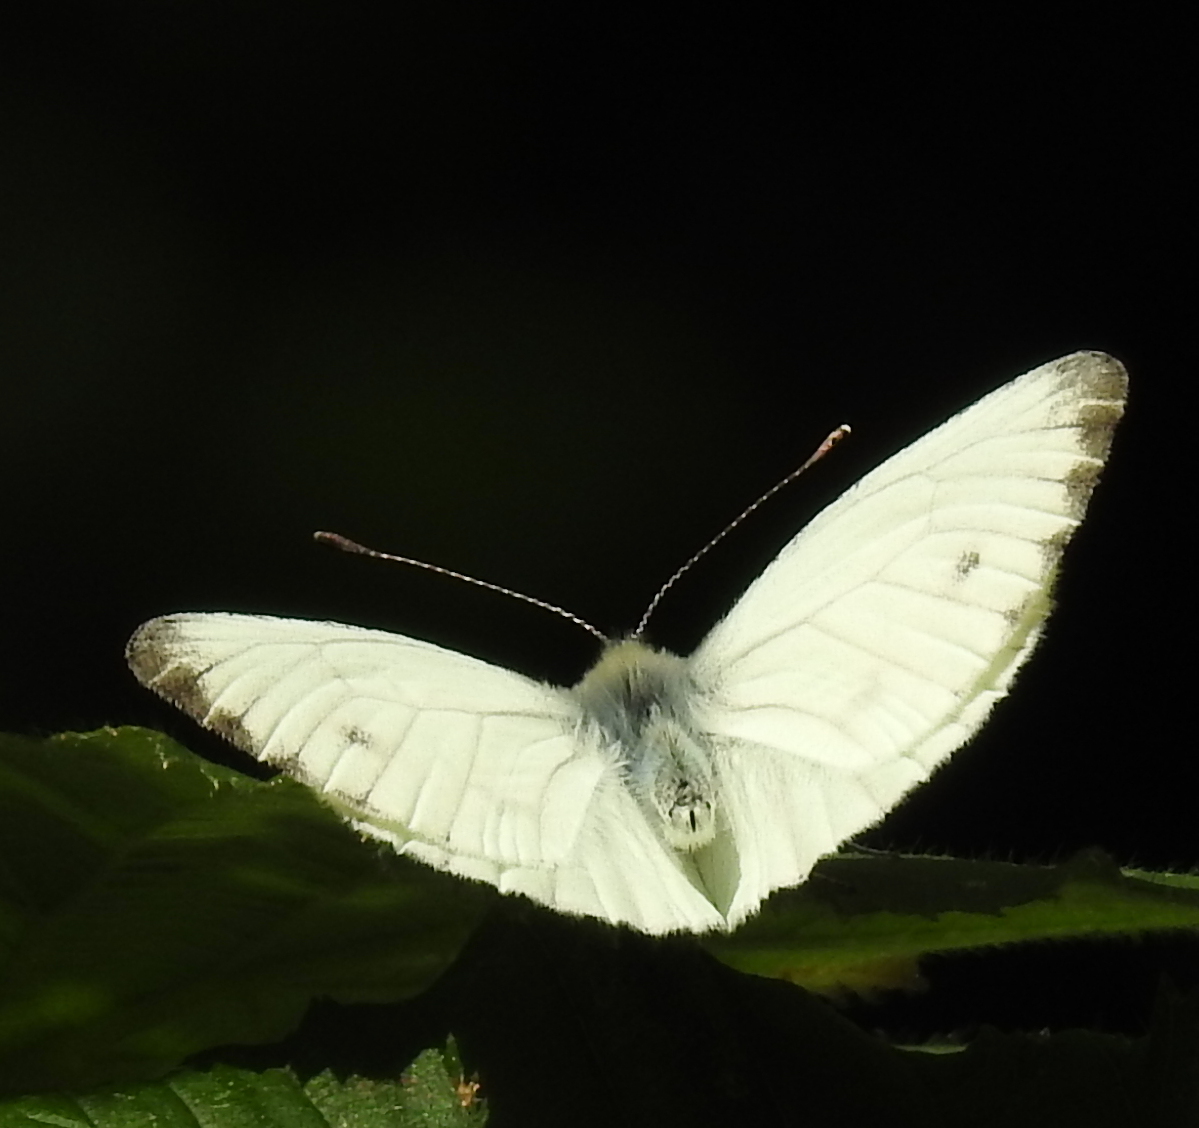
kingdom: Animalia
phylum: Arthropoda
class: Insecta
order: Lepidoptera
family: Pieridae
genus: Pieris
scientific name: Pieris napi
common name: Green-veined white
